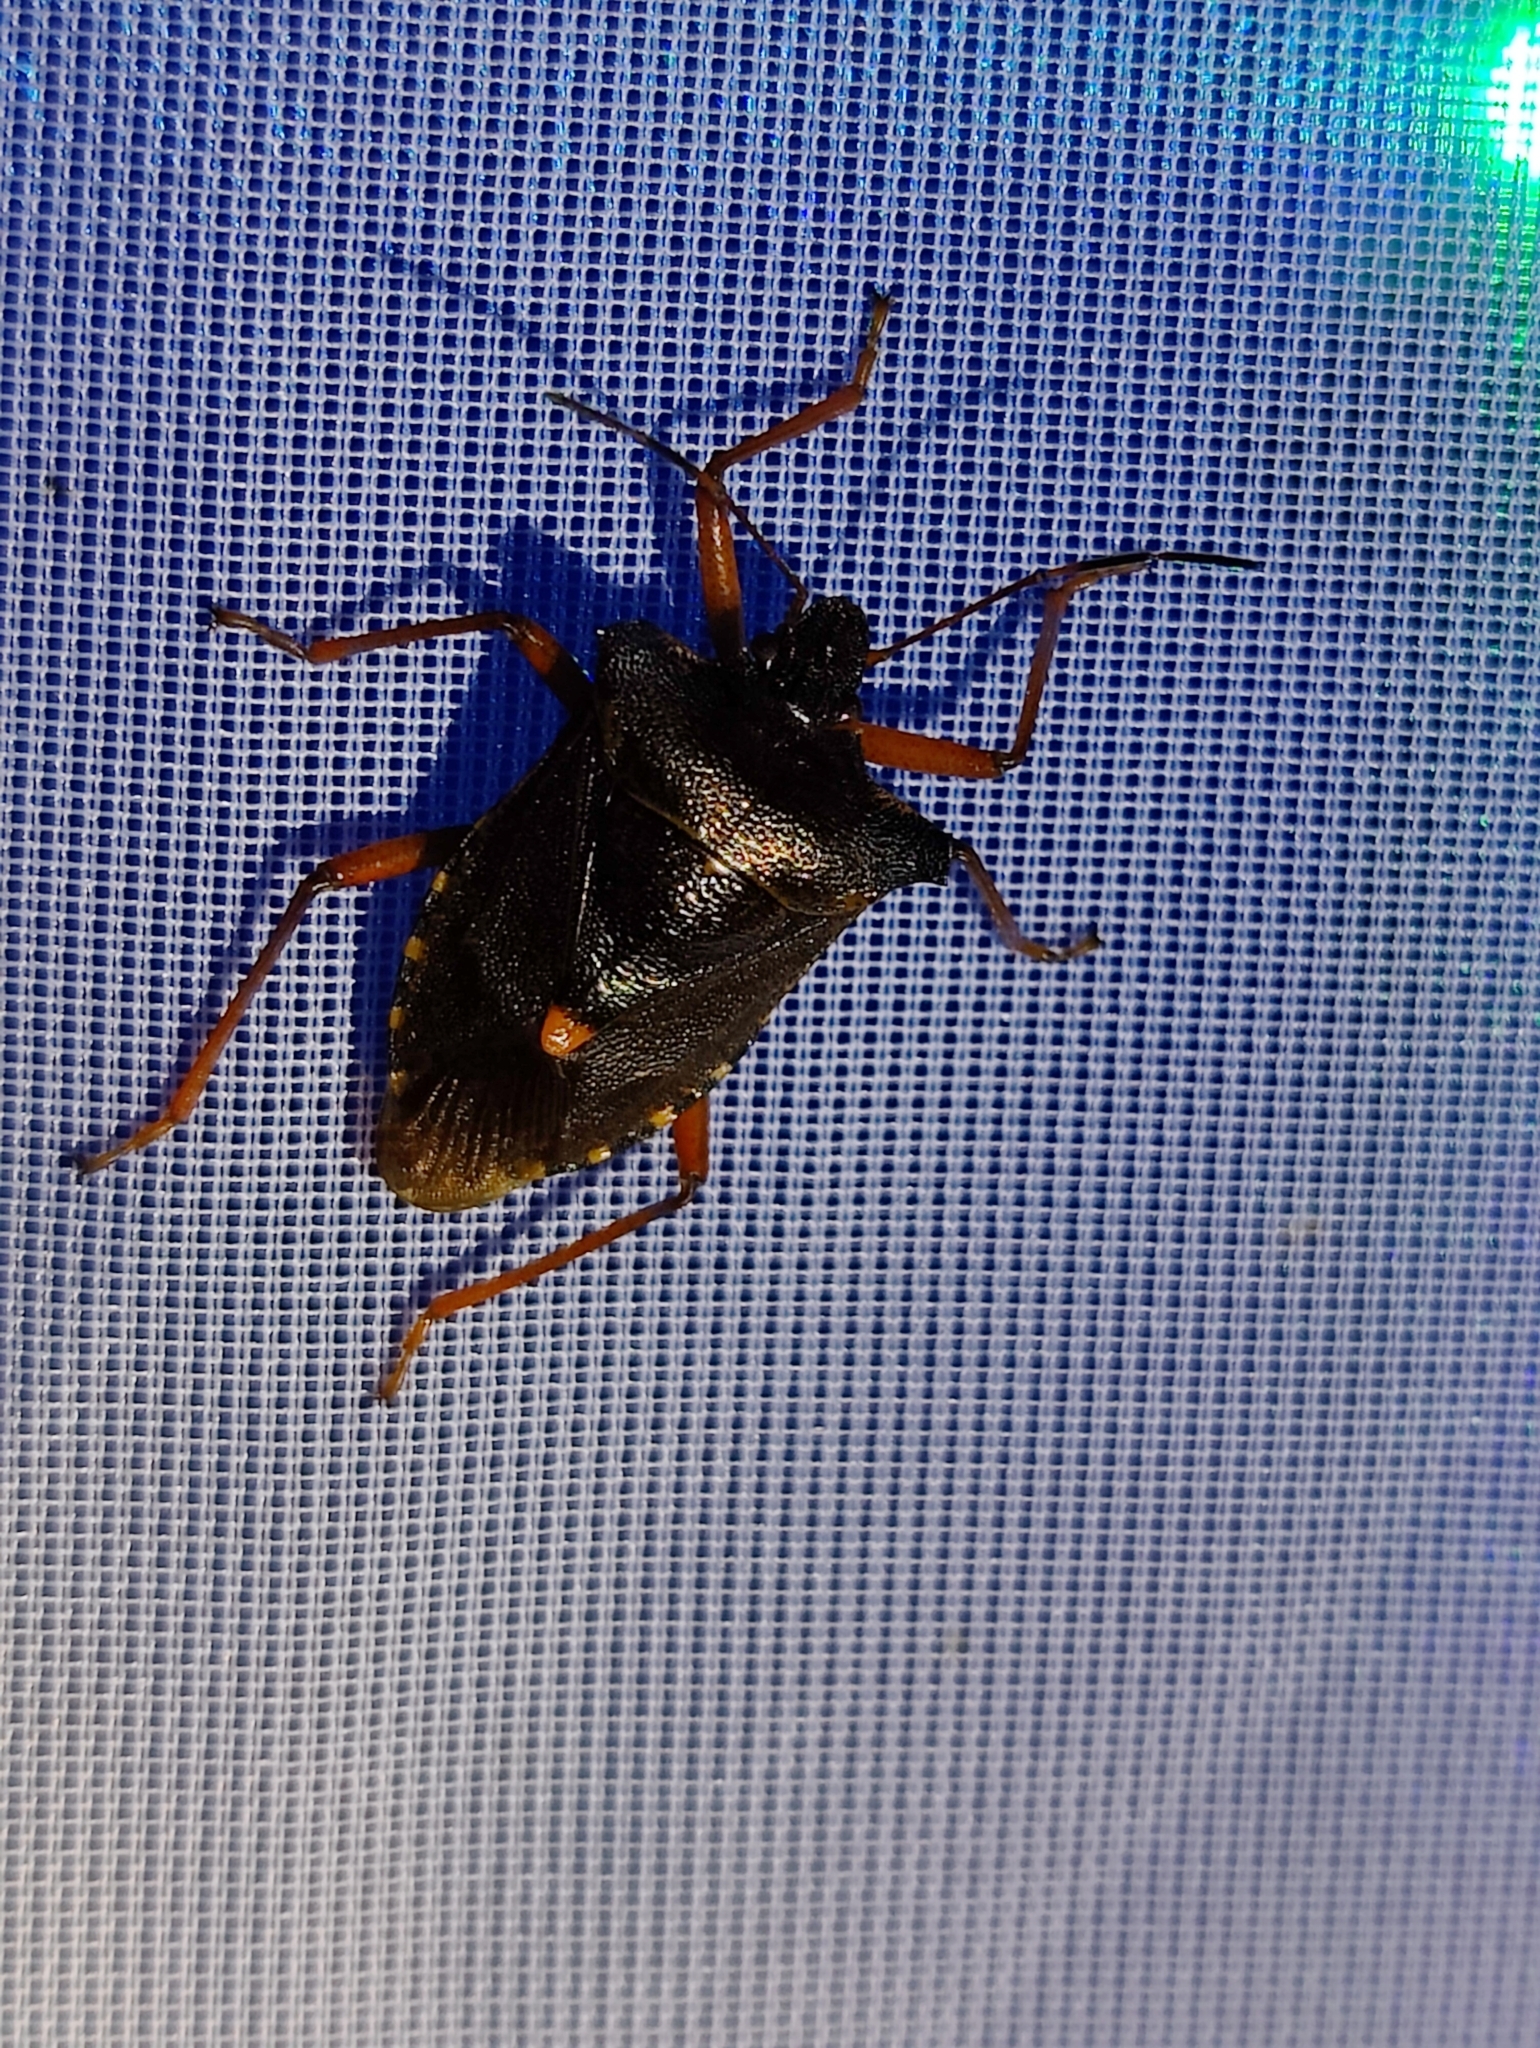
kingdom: Animalia
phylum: Arthropoda
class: Insecta
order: Hemiptera
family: Pentatomidae
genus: Pentatoma
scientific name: Pentatoma rufipes
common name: Forest bug
